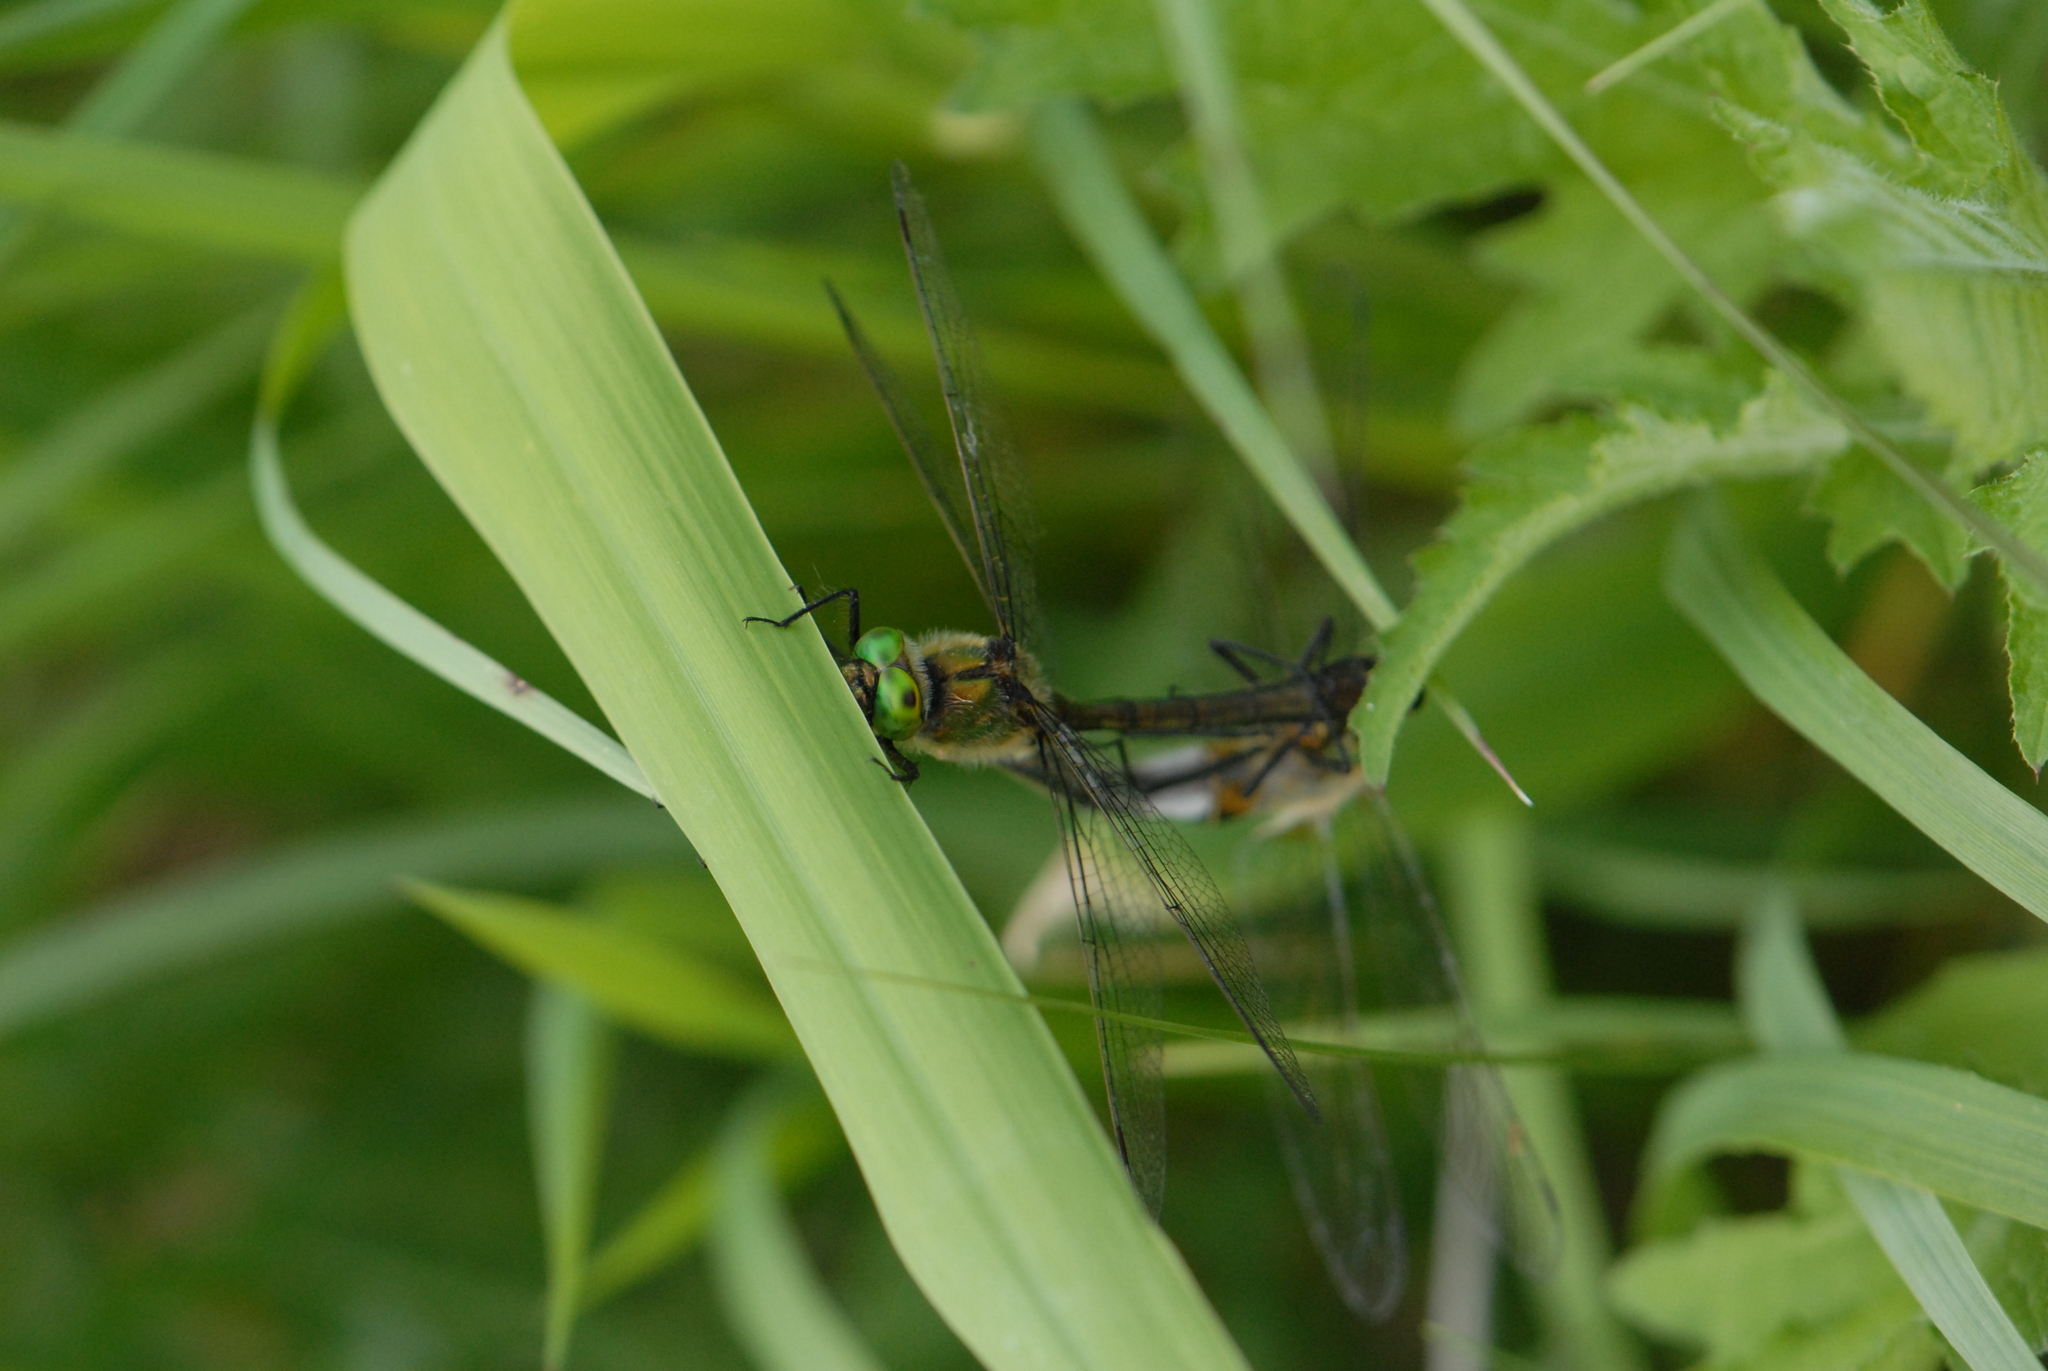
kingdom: Animalia
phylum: Arthropoda
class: Insecta
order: Odonata
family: Corduliidae
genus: Cordulia
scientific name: Cordulia aenea
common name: Downy emerald
